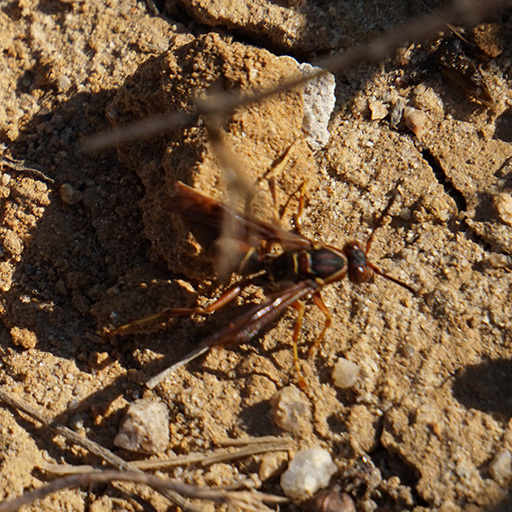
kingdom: Animalia
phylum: Arthropoda
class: Insecta
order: Hymenoptera
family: Eumenidae
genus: Polistes
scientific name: Polistes fuscatus
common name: Dark paper wasp
